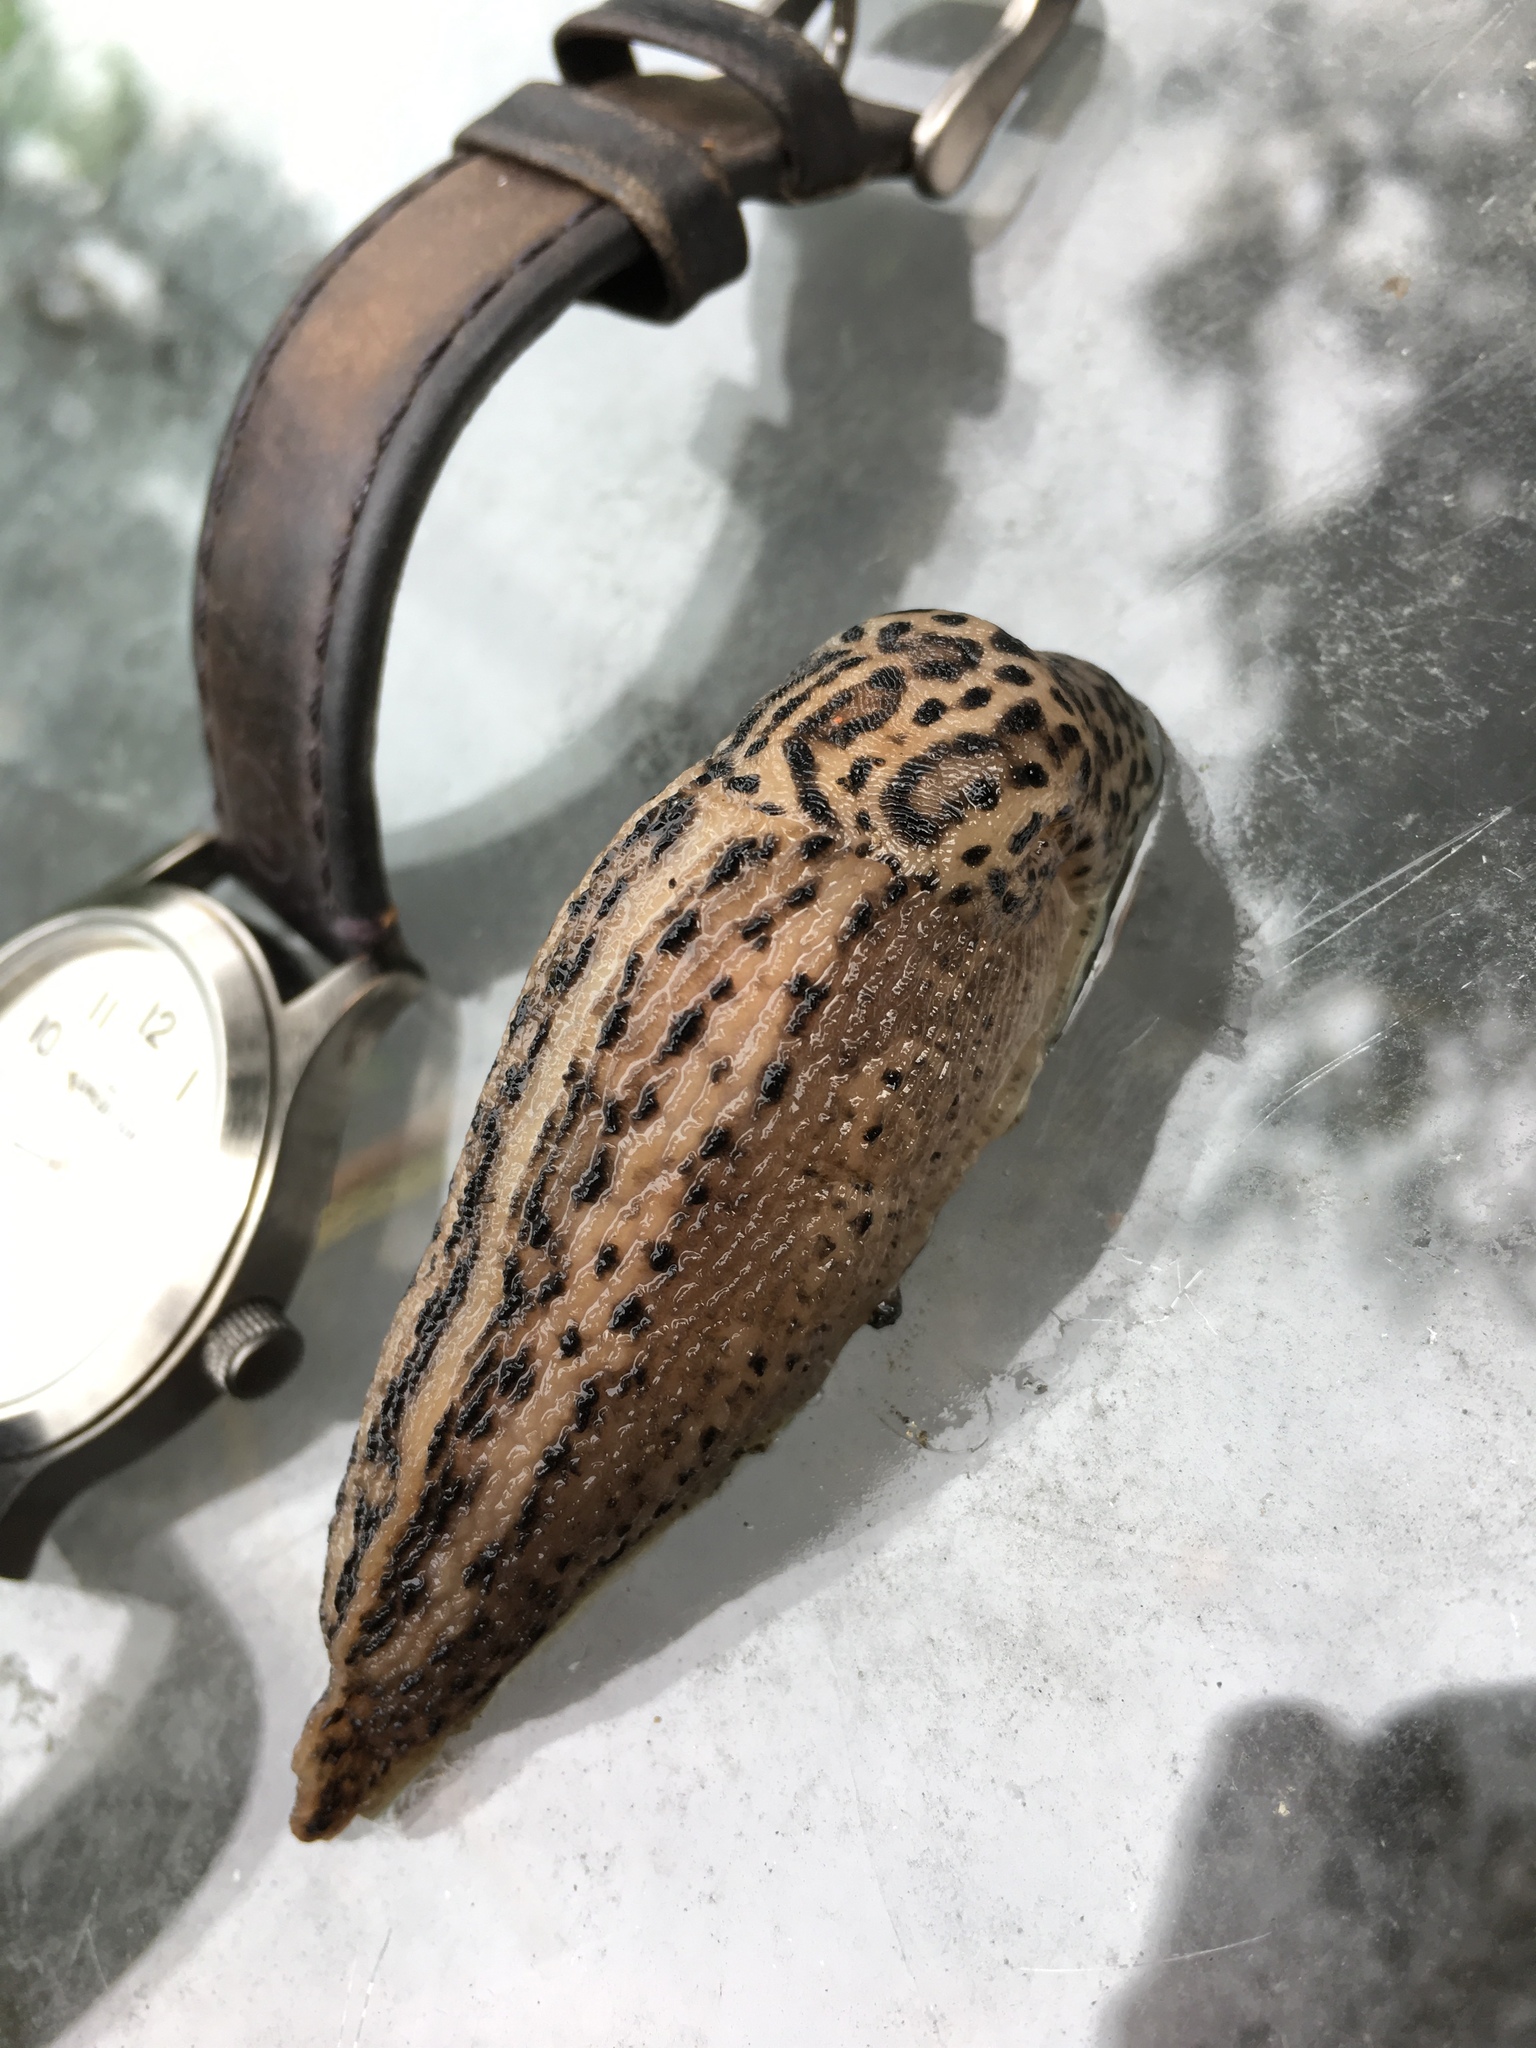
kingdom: Animalia
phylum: Mollusca
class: Gastropoda
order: Stylommatophora
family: Limacidae
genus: Limax
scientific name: Limax maximus
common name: Great grey slug
